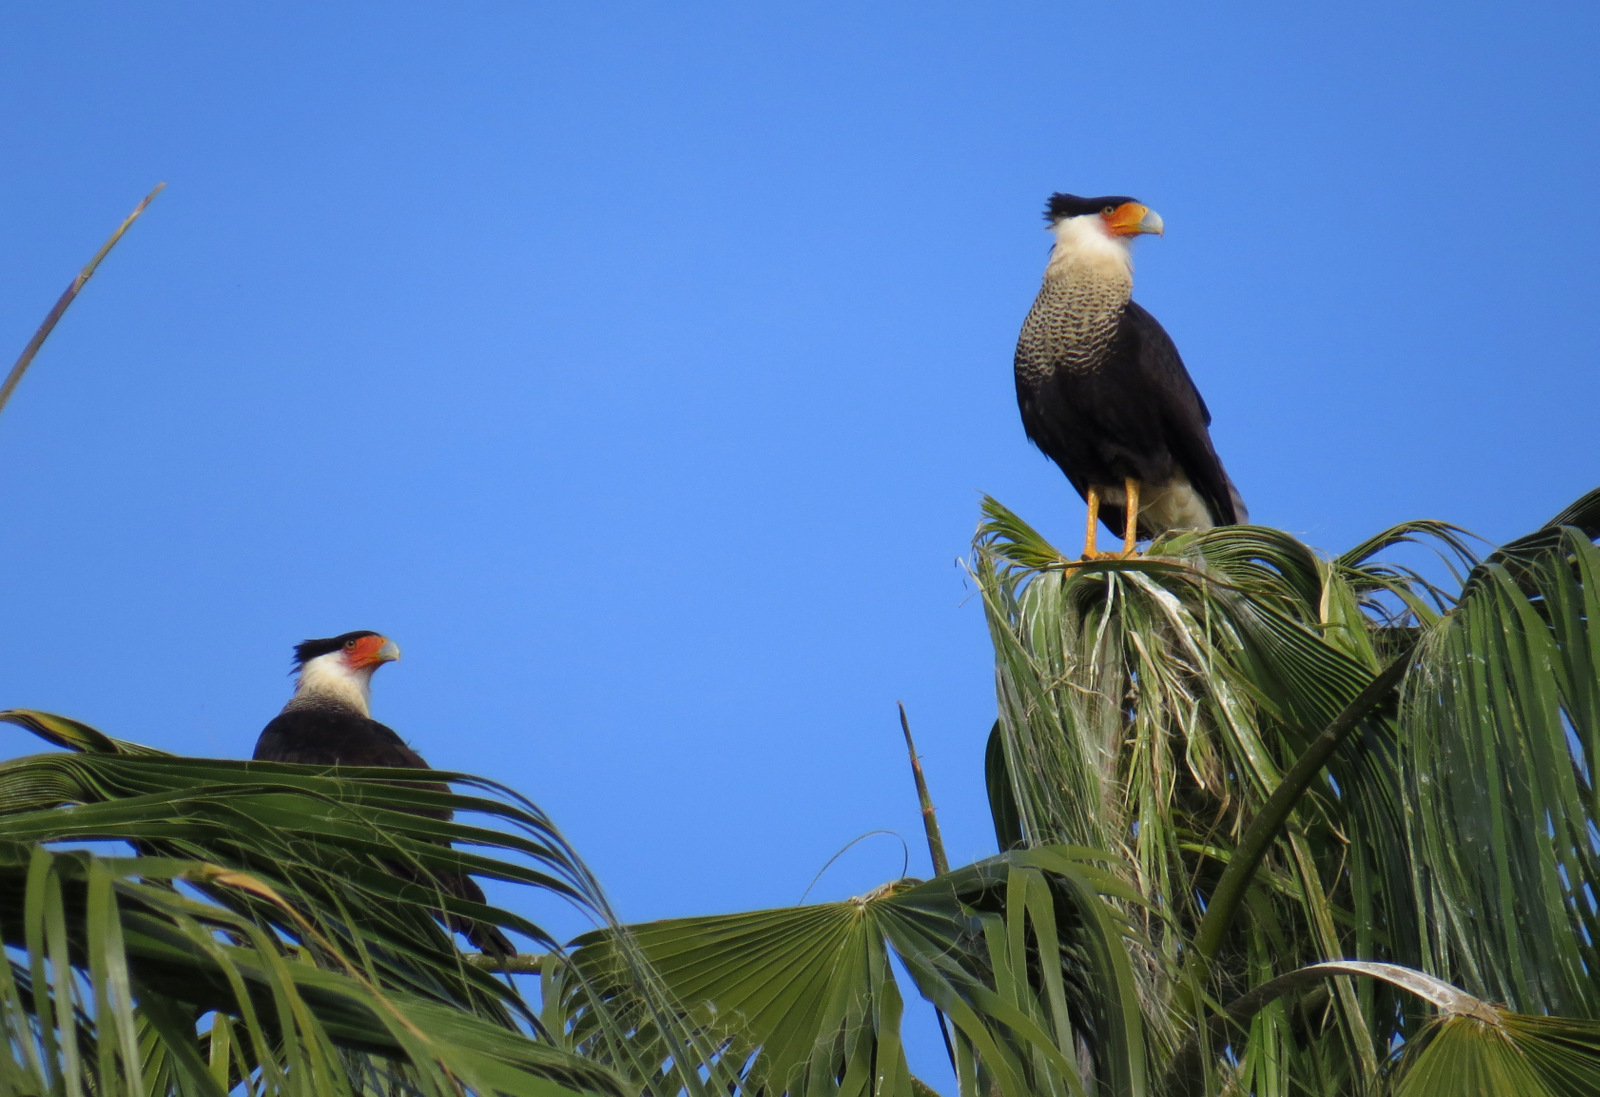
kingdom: Animalia
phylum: Chordata
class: Aves
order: Falconiformes
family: Falconidae
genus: Caracara
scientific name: Caracara plancus
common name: Southern caracara
